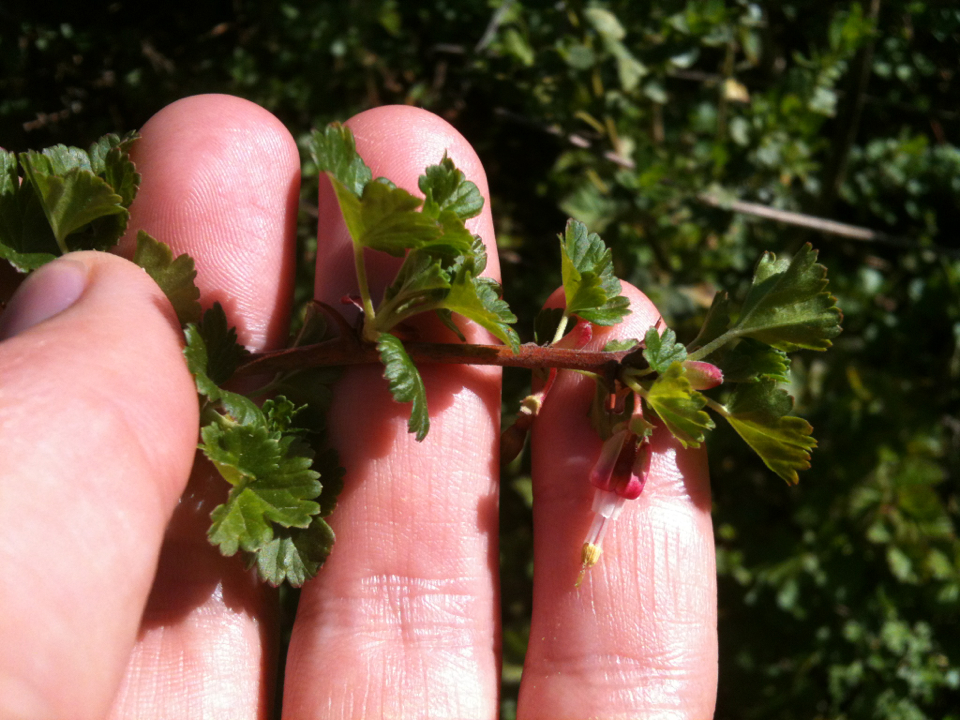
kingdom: Plantae
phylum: Tracheophyta
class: Magnoliopsida
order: Saxifragales
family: Grossulariaceae
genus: Ribes
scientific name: Ribes californicum
